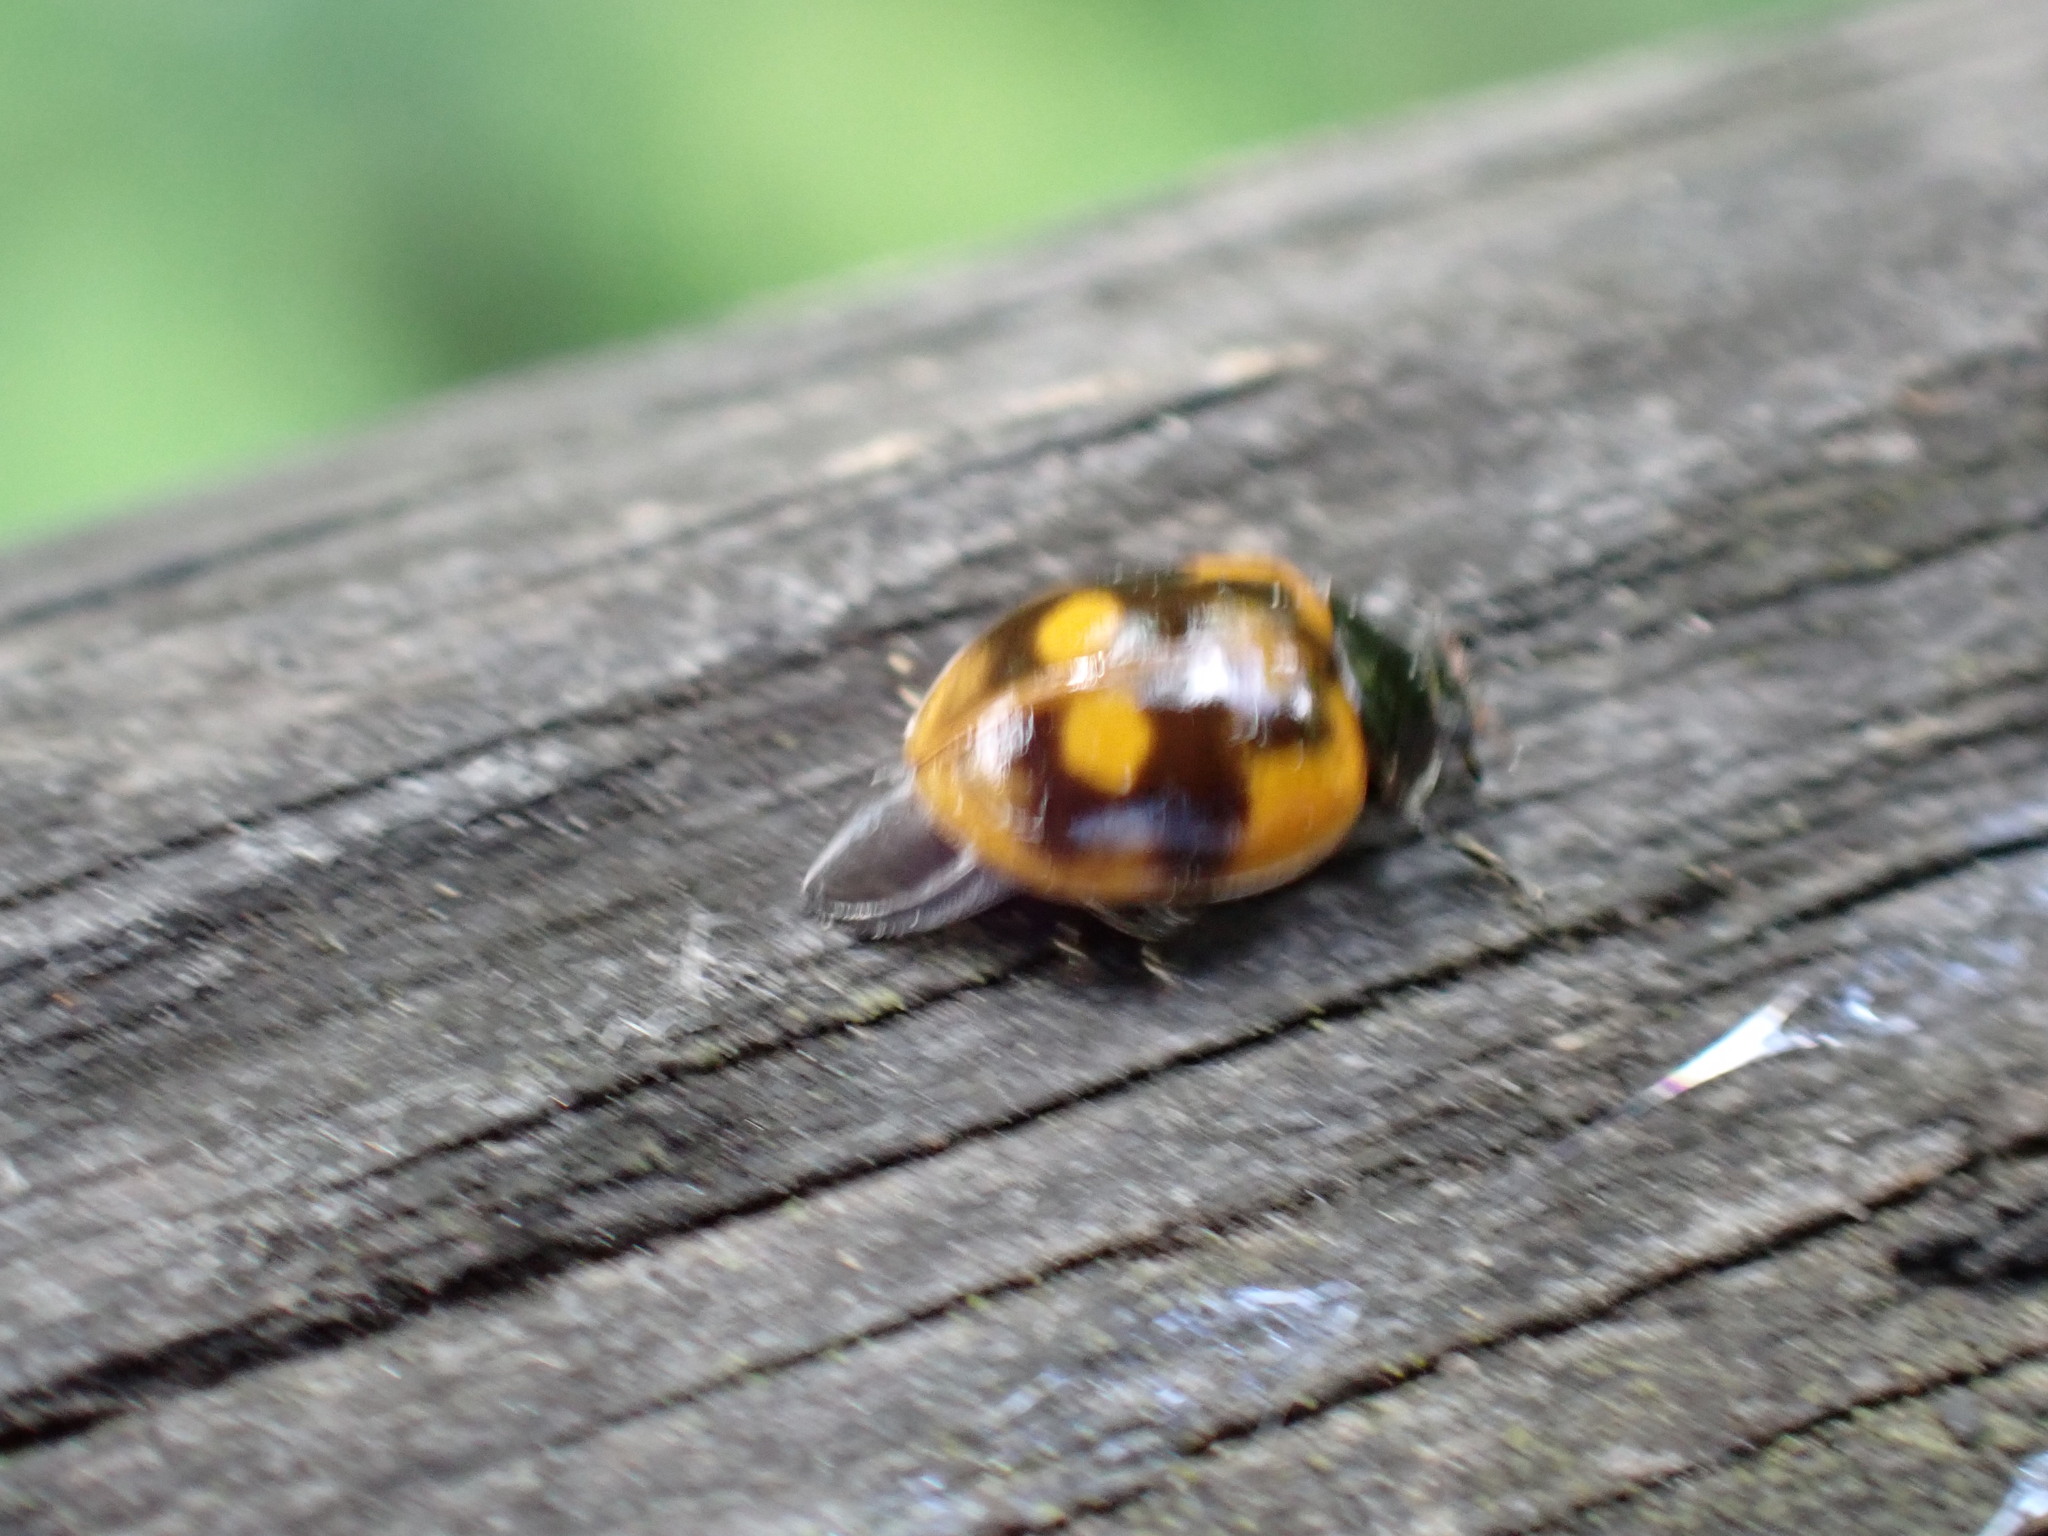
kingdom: Animalia
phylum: Arthropoda
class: Insecta
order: Coleoptera
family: Coccinellidae
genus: Adalia
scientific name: Adalia bipunctata
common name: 2-spot ladybird
